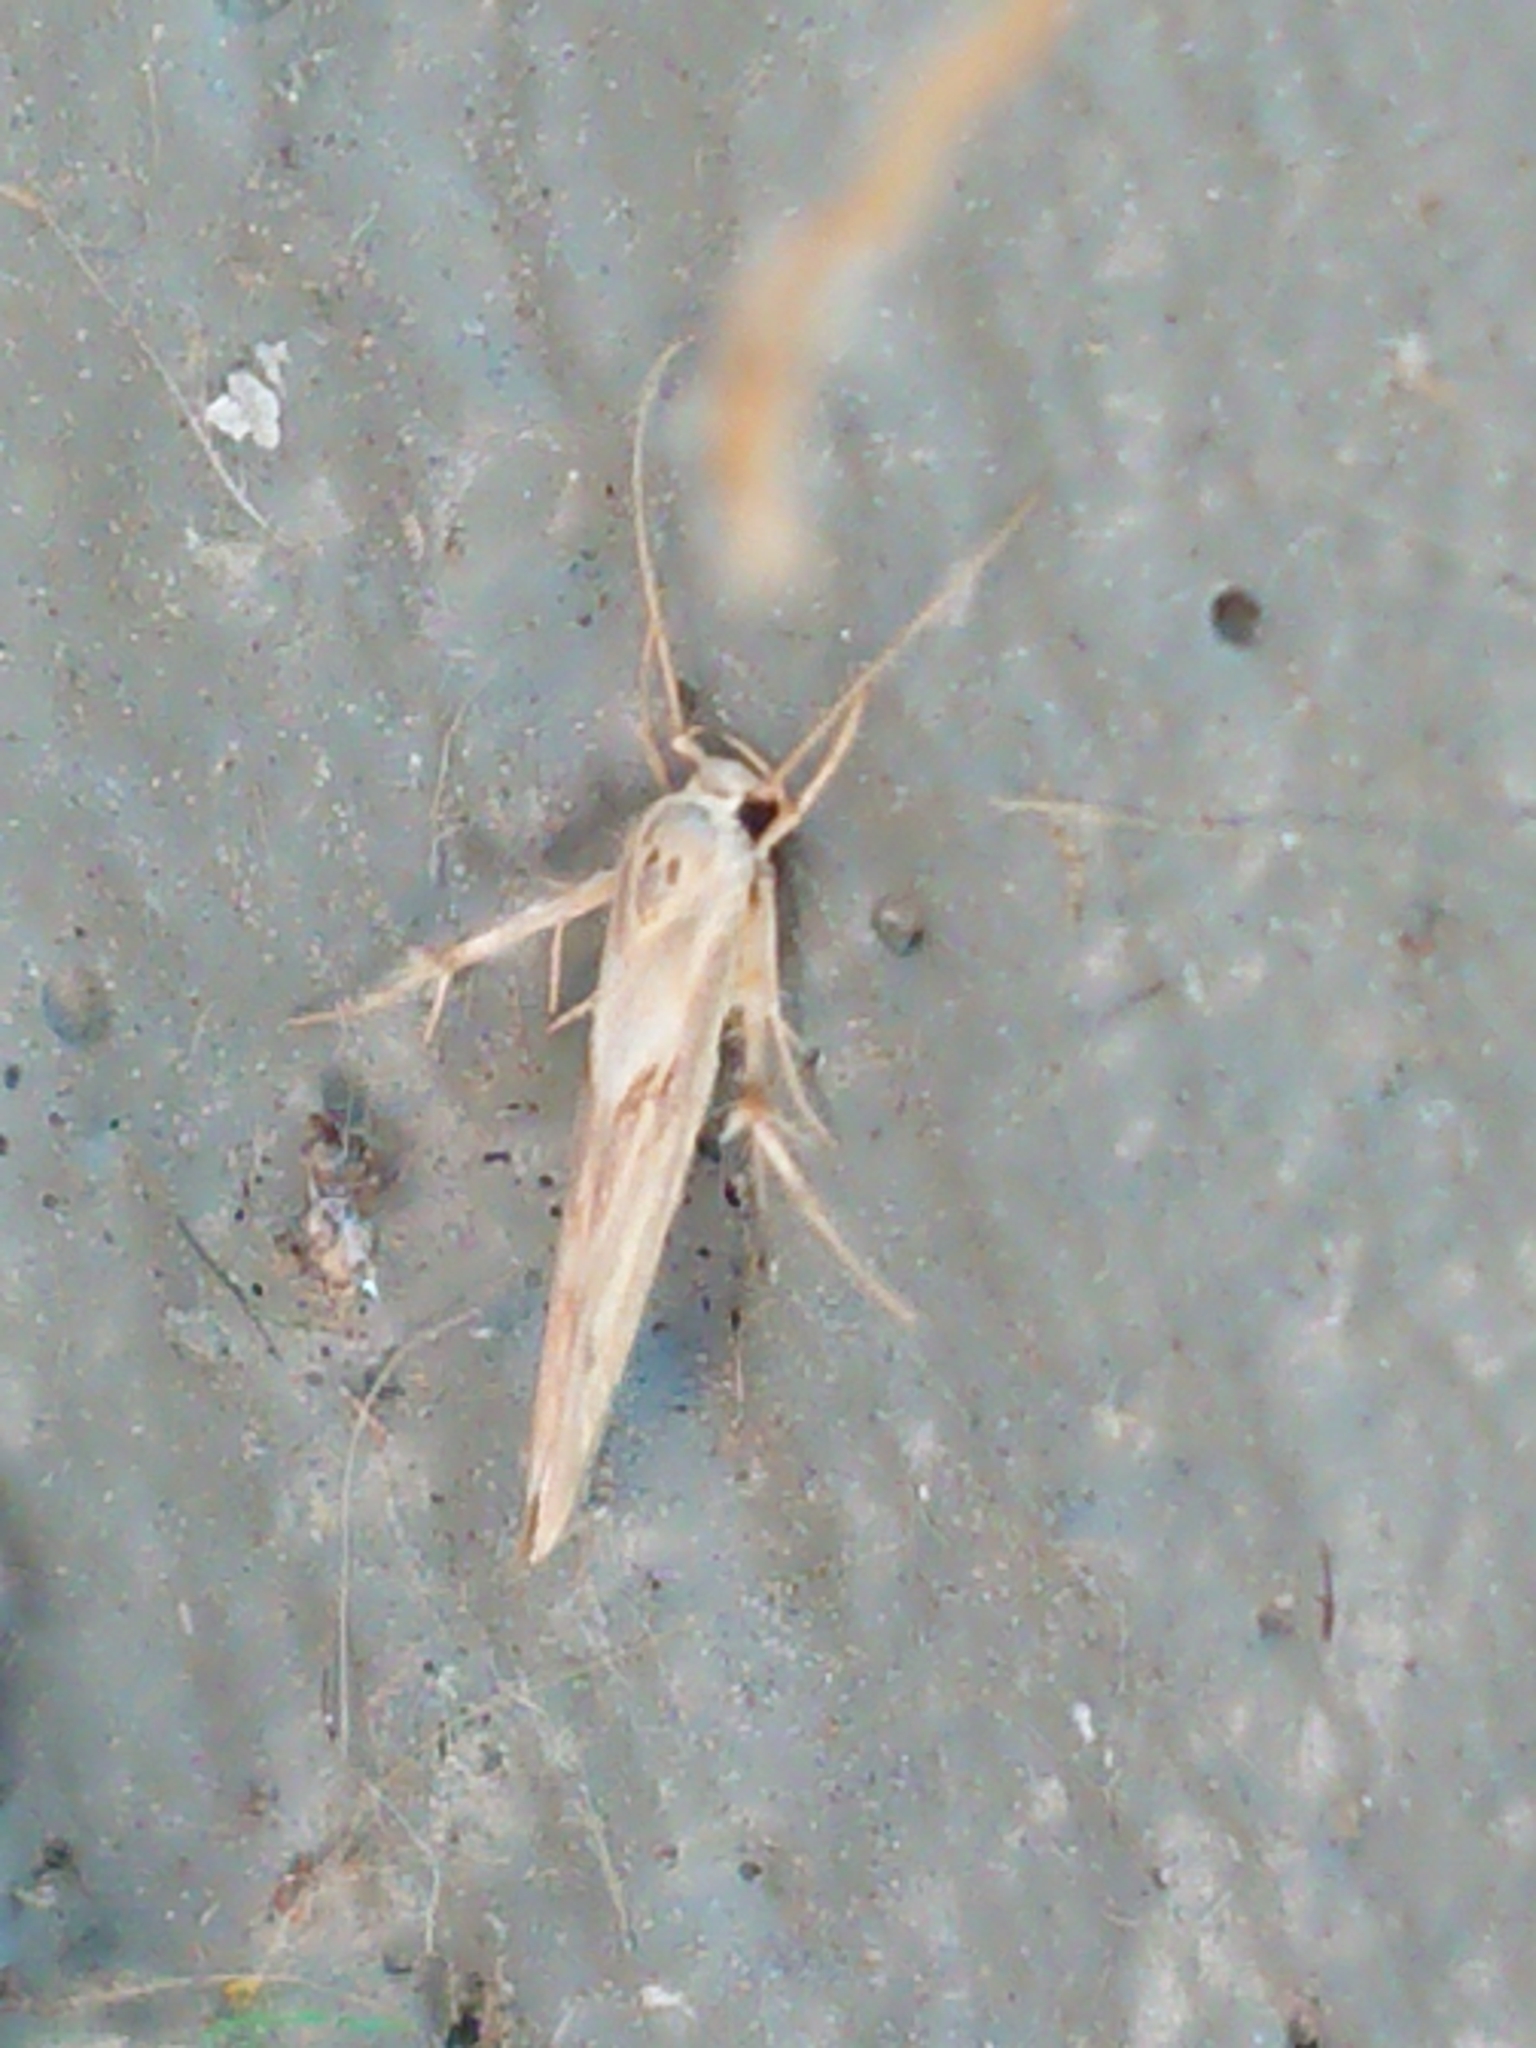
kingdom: Animalia
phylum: Arthropoda
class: Insecta
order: Lepidoptera
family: Stathmopodidae
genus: Stathmopoda
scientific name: Stathmopoda plumbiflua
